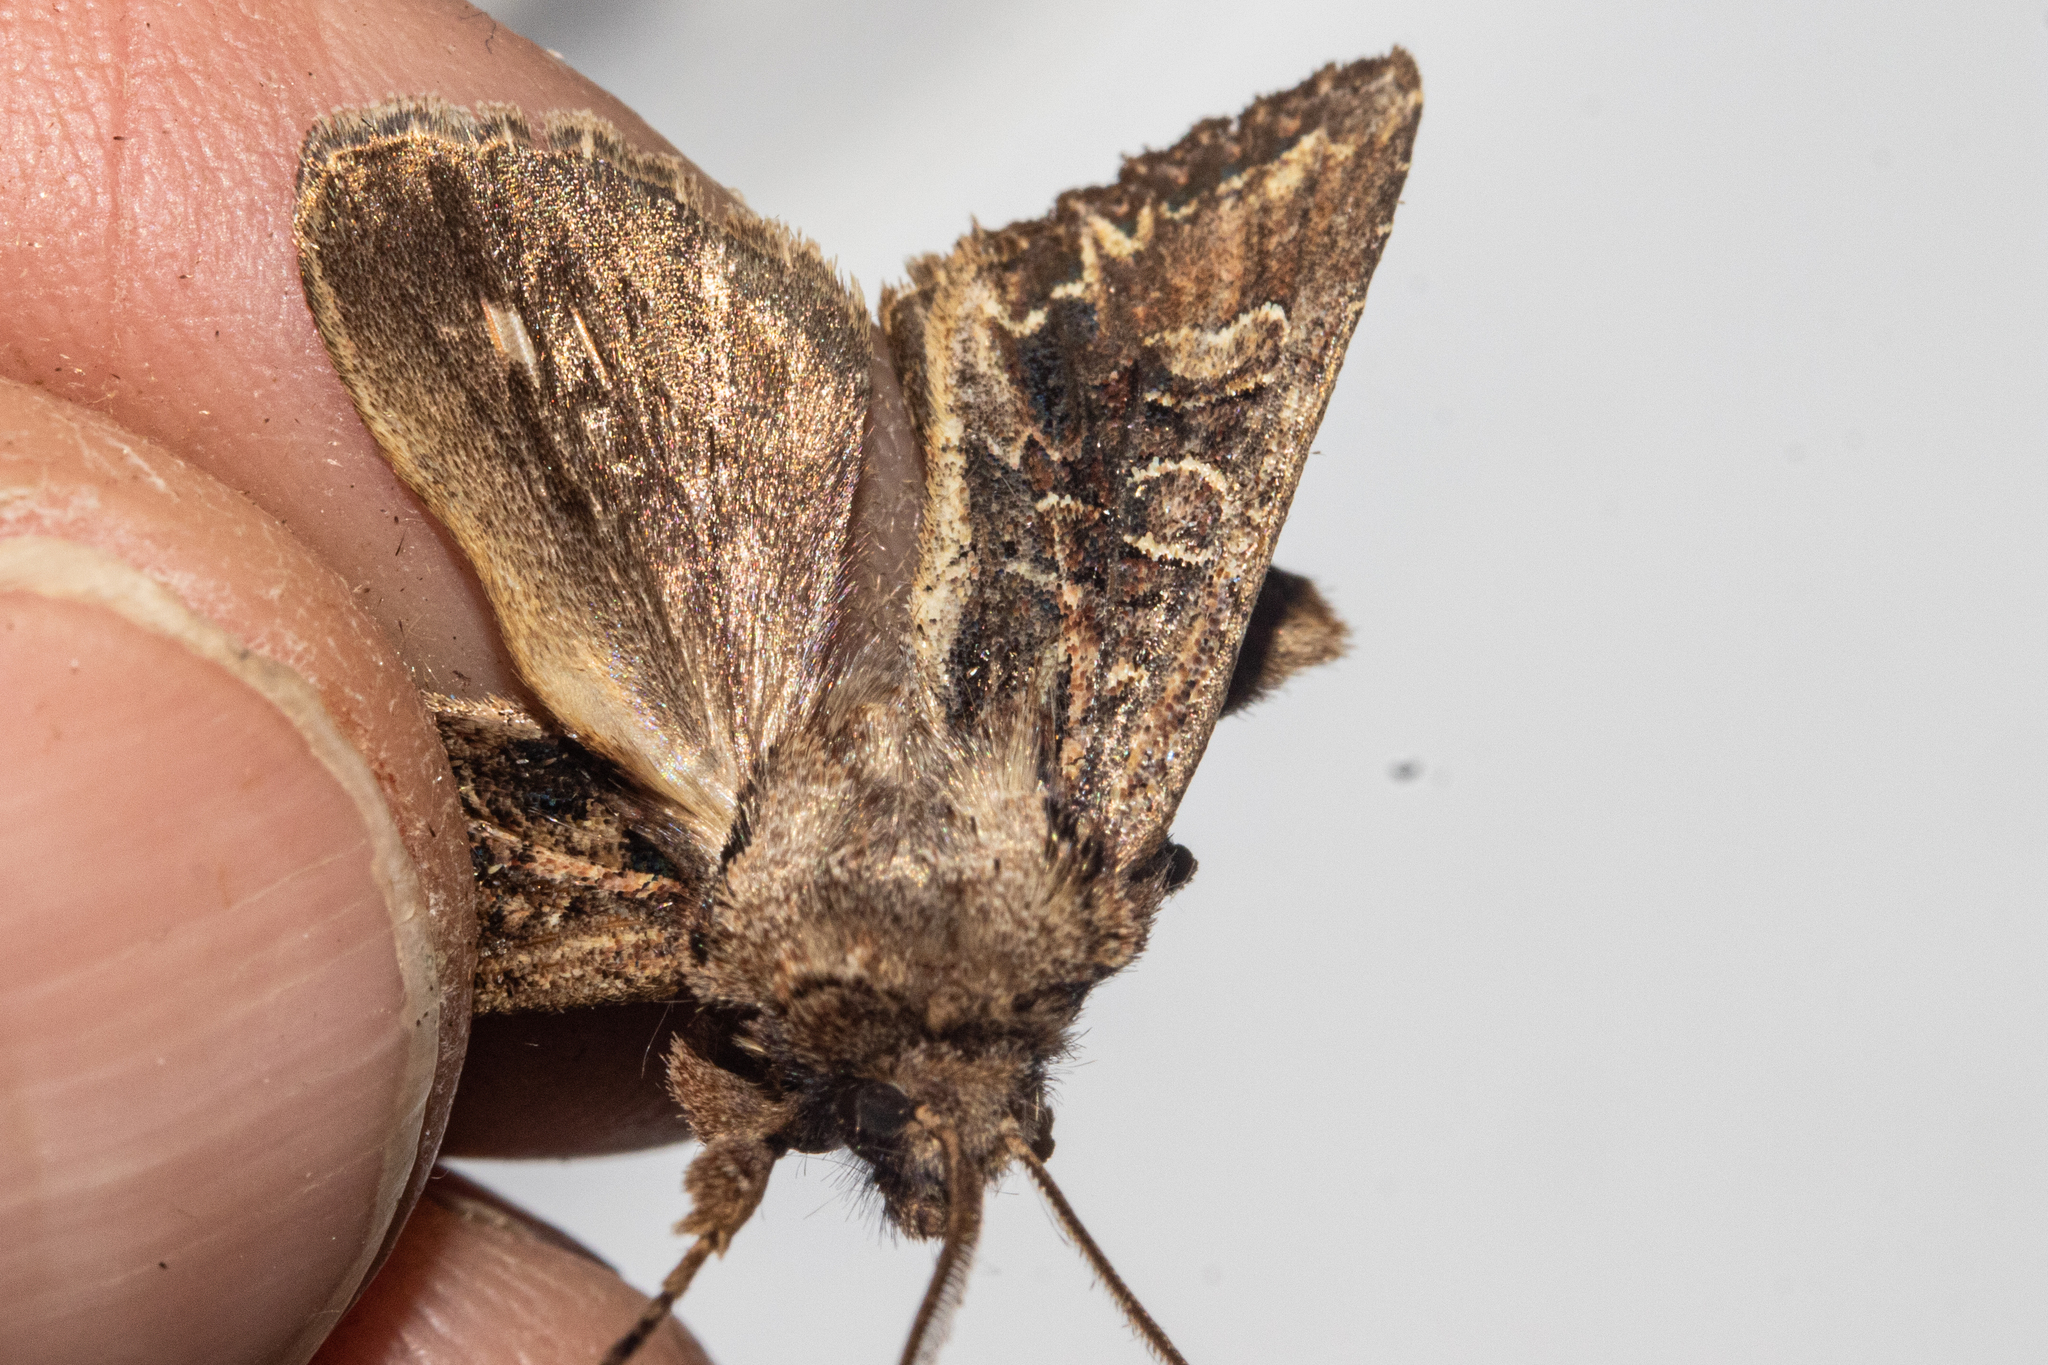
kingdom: Animalia
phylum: Arthropoda
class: Insecta
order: Lepidoptera
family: Noctuidae
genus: Ichneutica
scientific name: Ichneutica insignis
